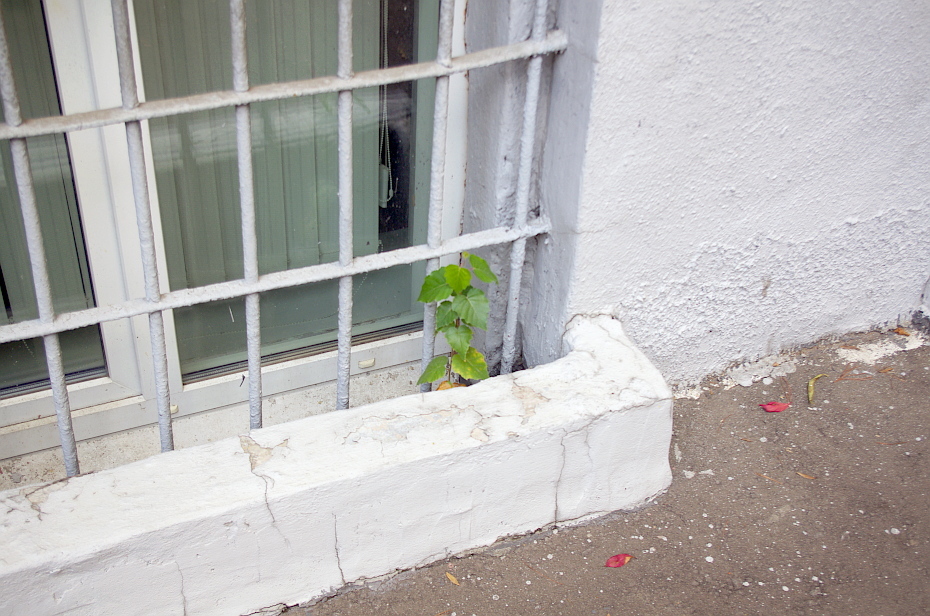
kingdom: Plantae
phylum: Tracheophyta
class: Magnoliopsida
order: Fagales
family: Betulaceae
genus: Betula
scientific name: Betula pubescens
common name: Downy birch
